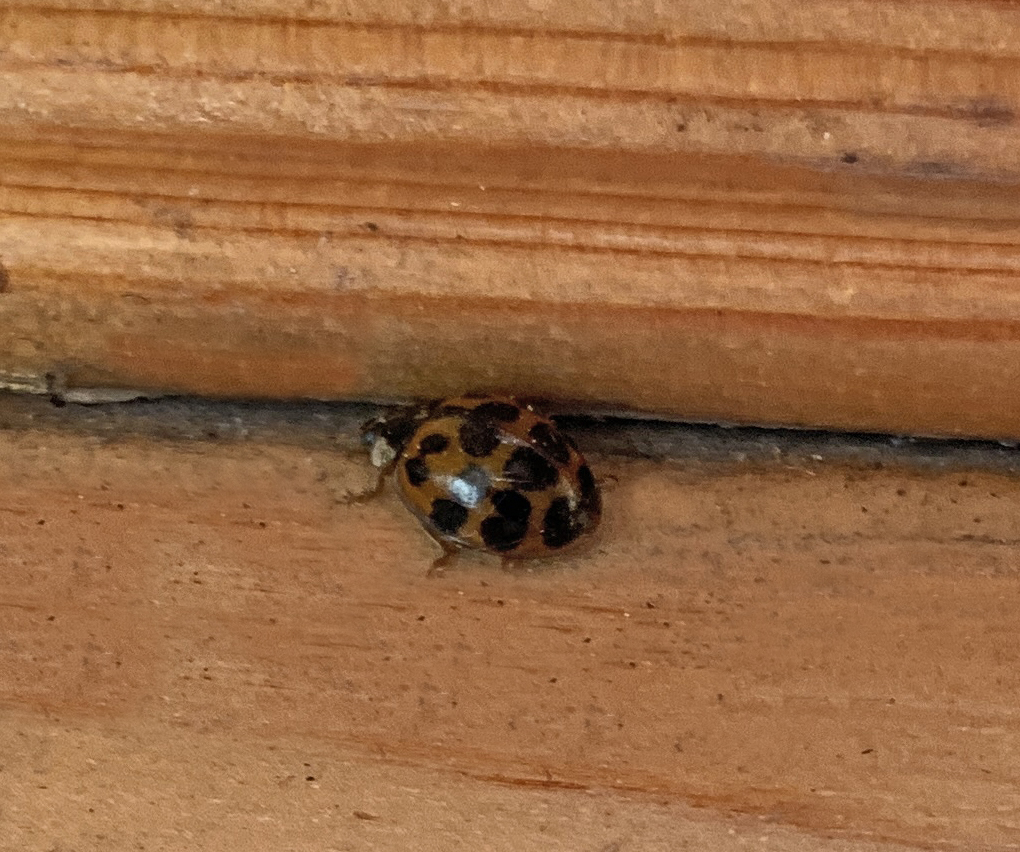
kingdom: Animalia
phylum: Arthropoda
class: Insecta
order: Coleoptera
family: Coccinellidae
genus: Harmonia
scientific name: Harmonia axyridis
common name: Harlequin ladybird
